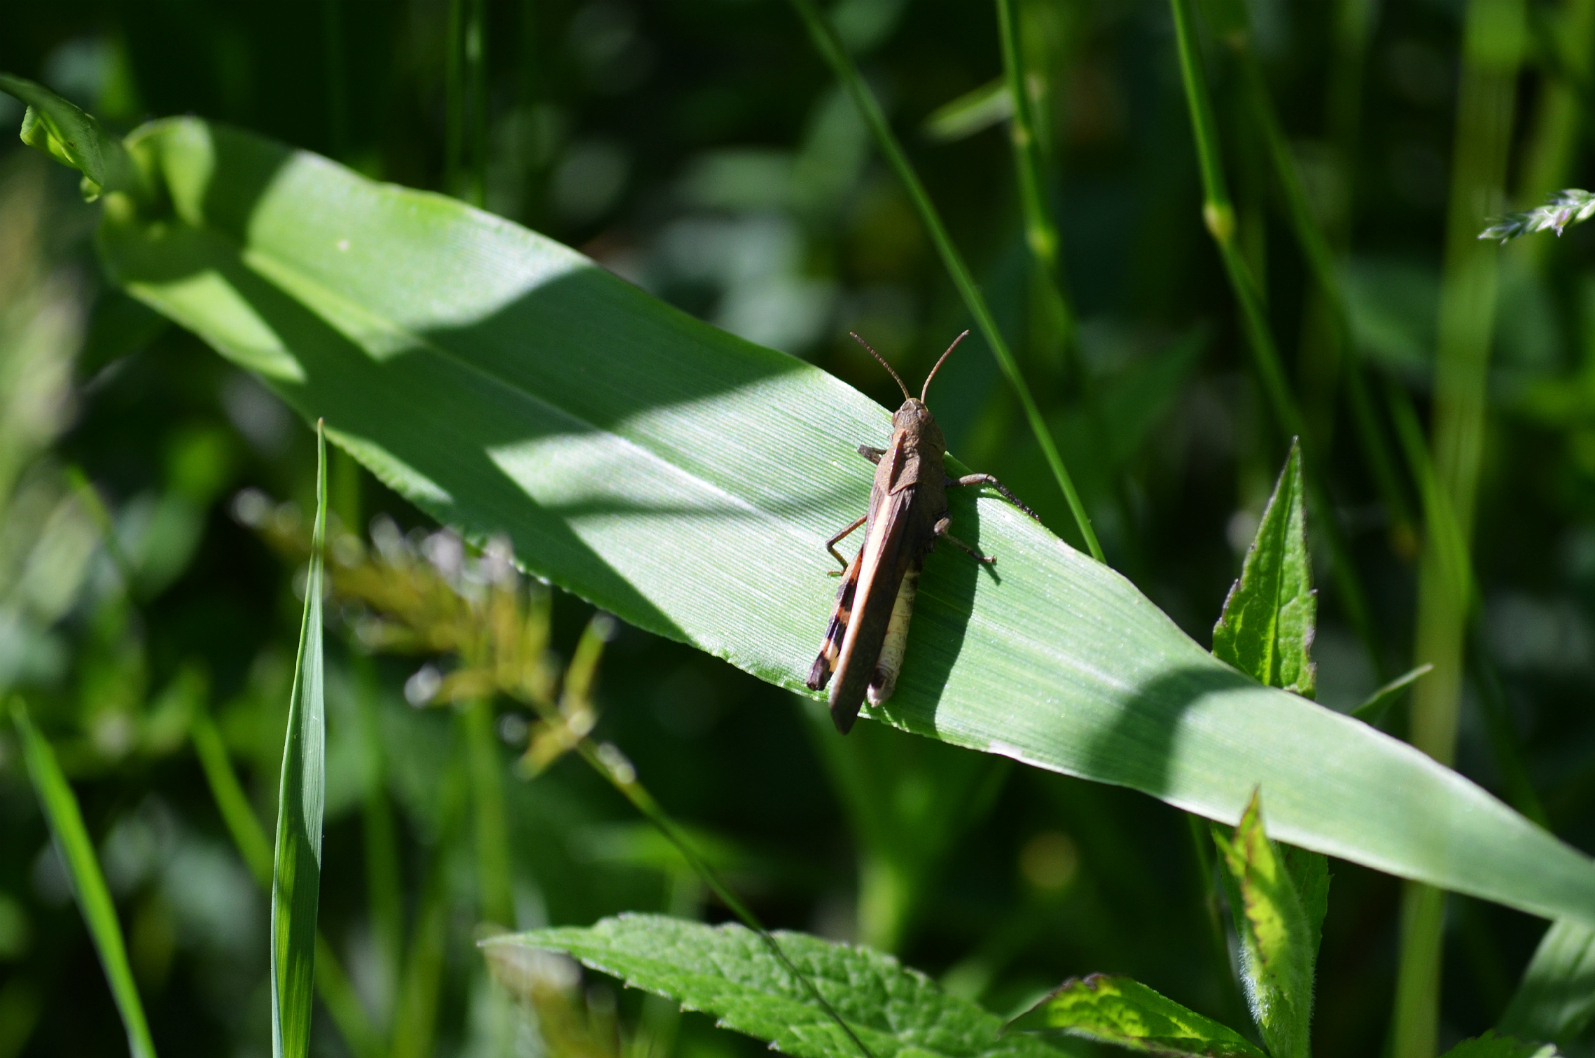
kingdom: Animalia
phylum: Arthropoda
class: Insecta
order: Orthoptera
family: Acrididae
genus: Arphia
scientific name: Arphia sulphurea
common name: Spring yellow-winged locust
